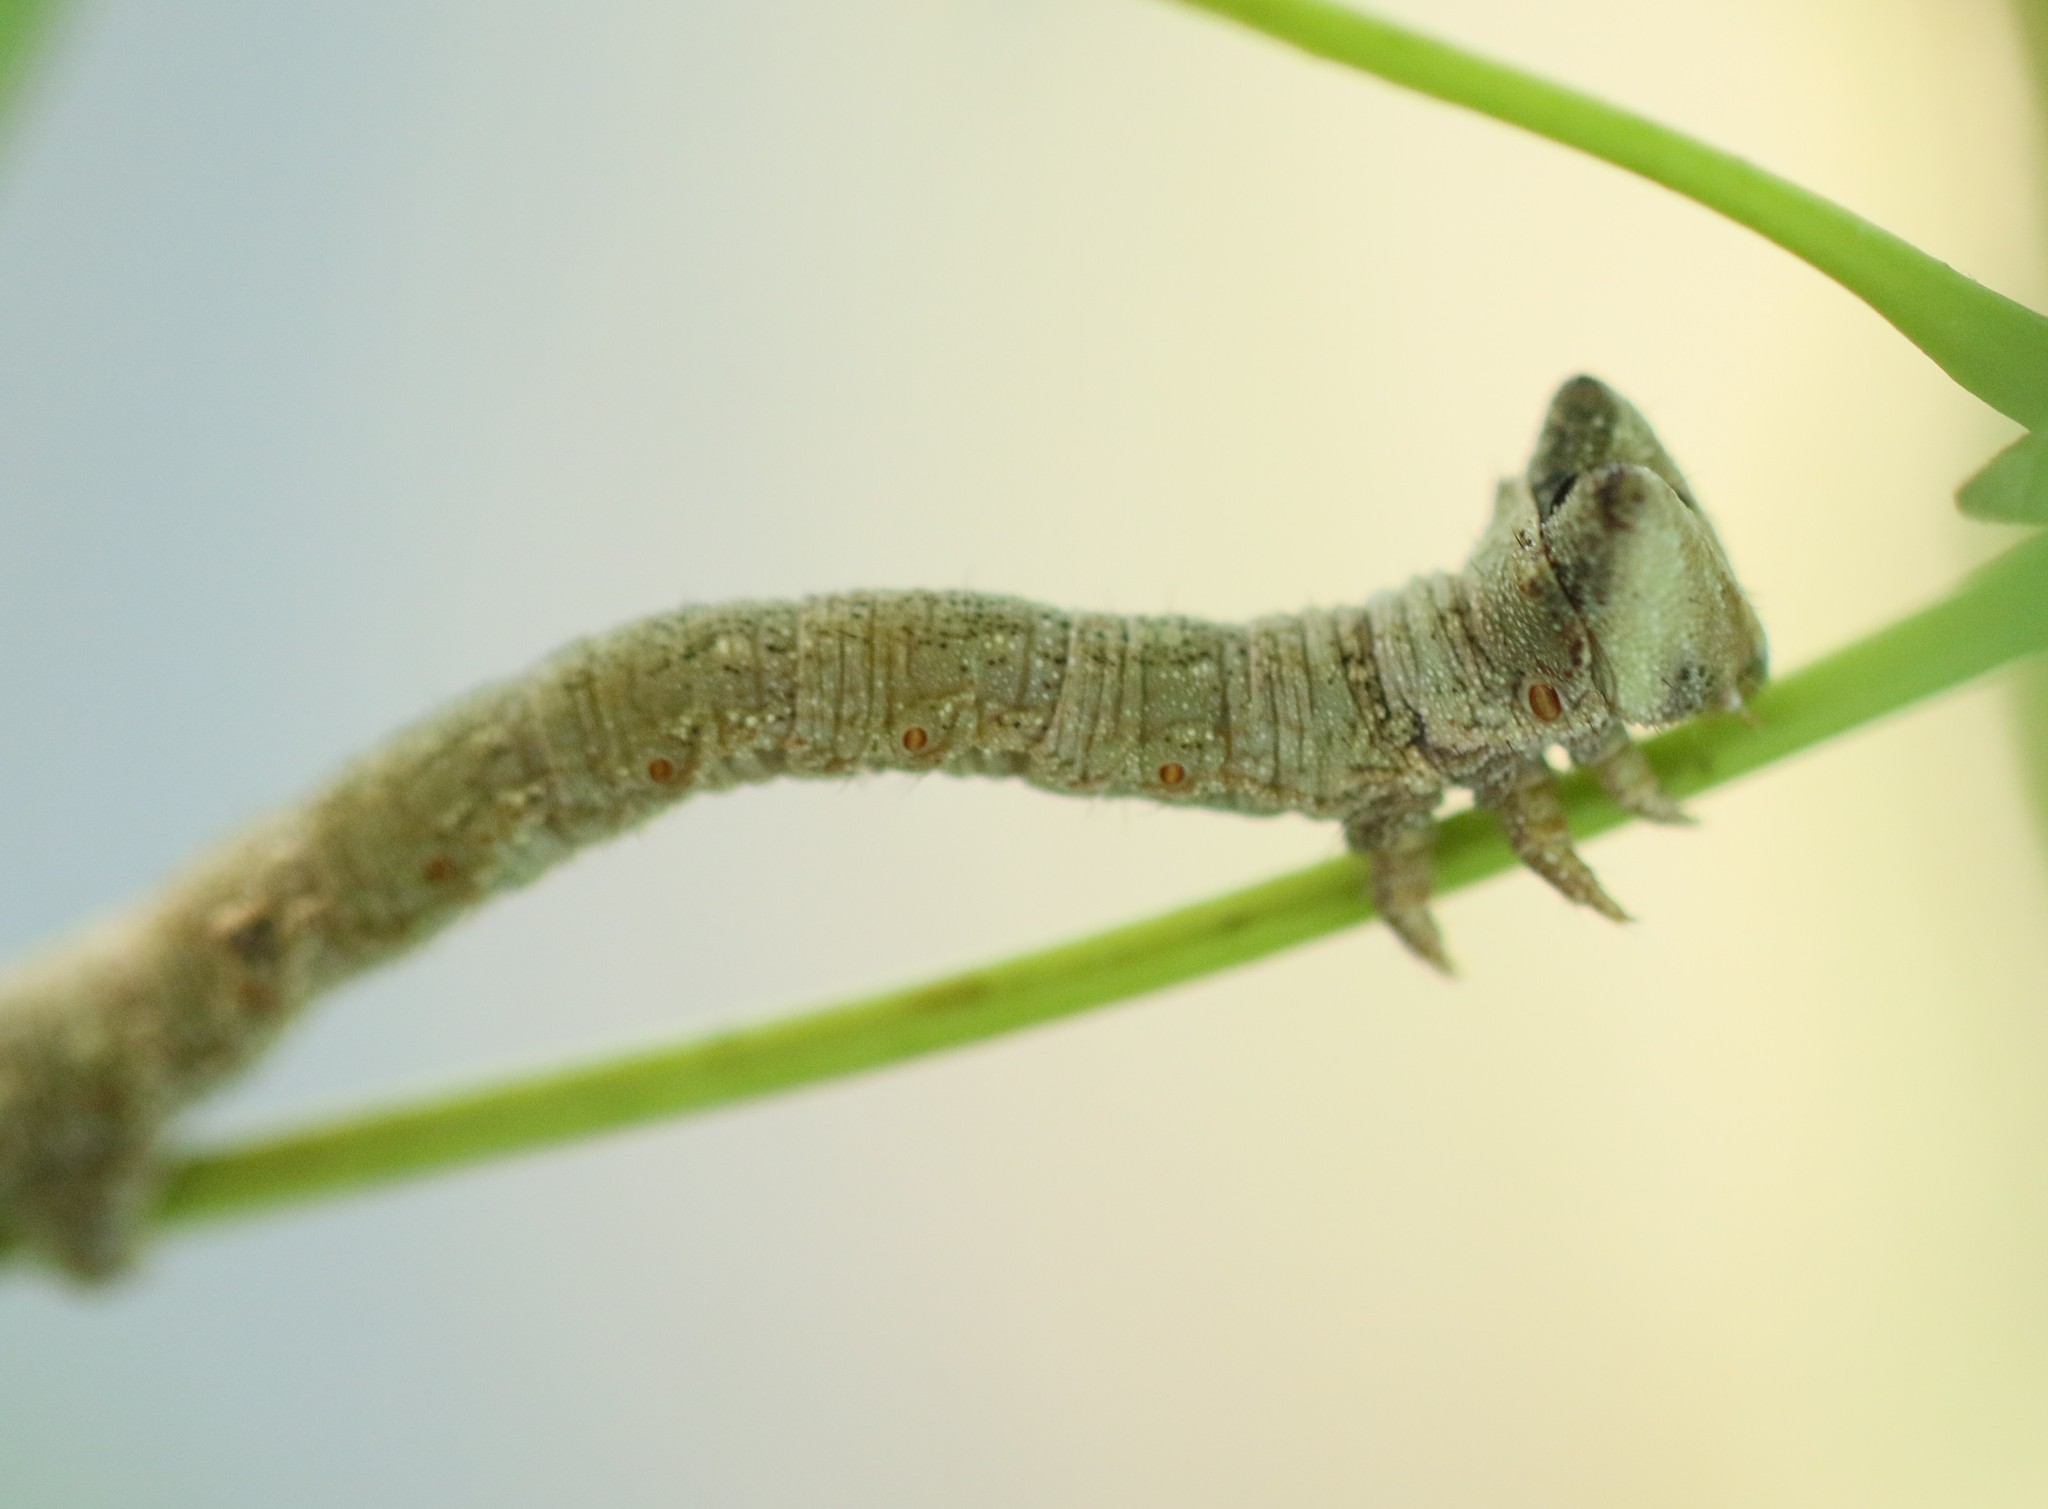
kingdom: Animalia
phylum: Arthropoda
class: Insecta
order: Lepidoptera
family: Geometridae
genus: Biston
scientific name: Biston betularia
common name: Peppered moth
